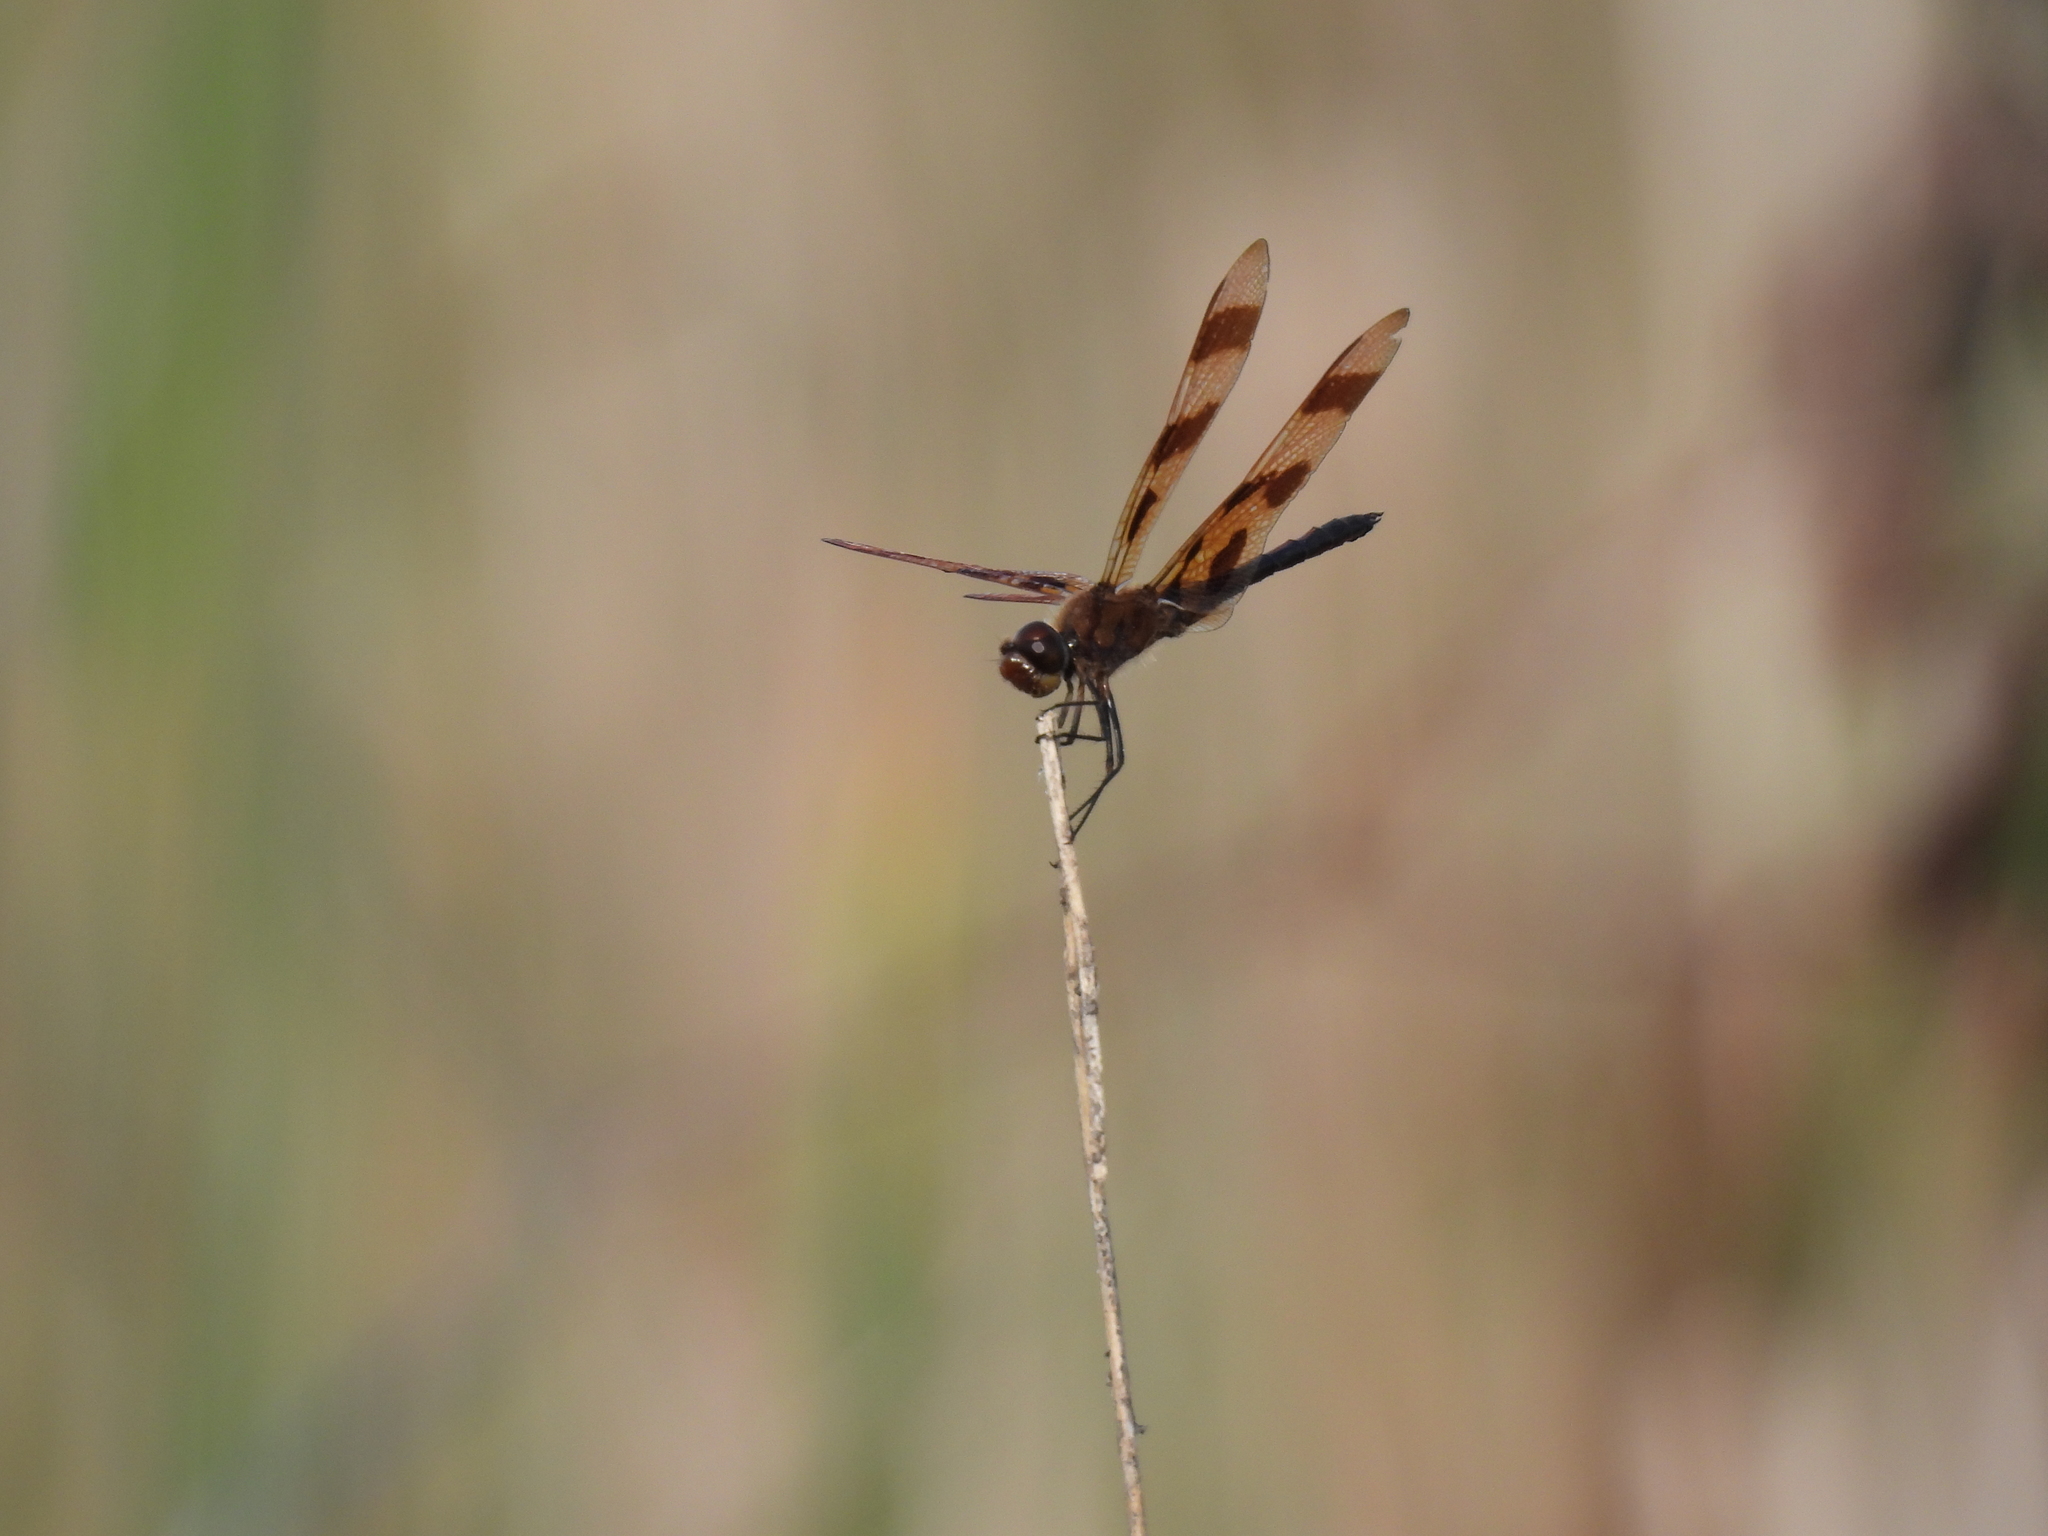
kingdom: Animalia
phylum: Arthropoda
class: Insecta
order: Odonata
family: Libellulidae
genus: Celithemis
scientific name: Celithemis eponina
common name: Halloween pennant
